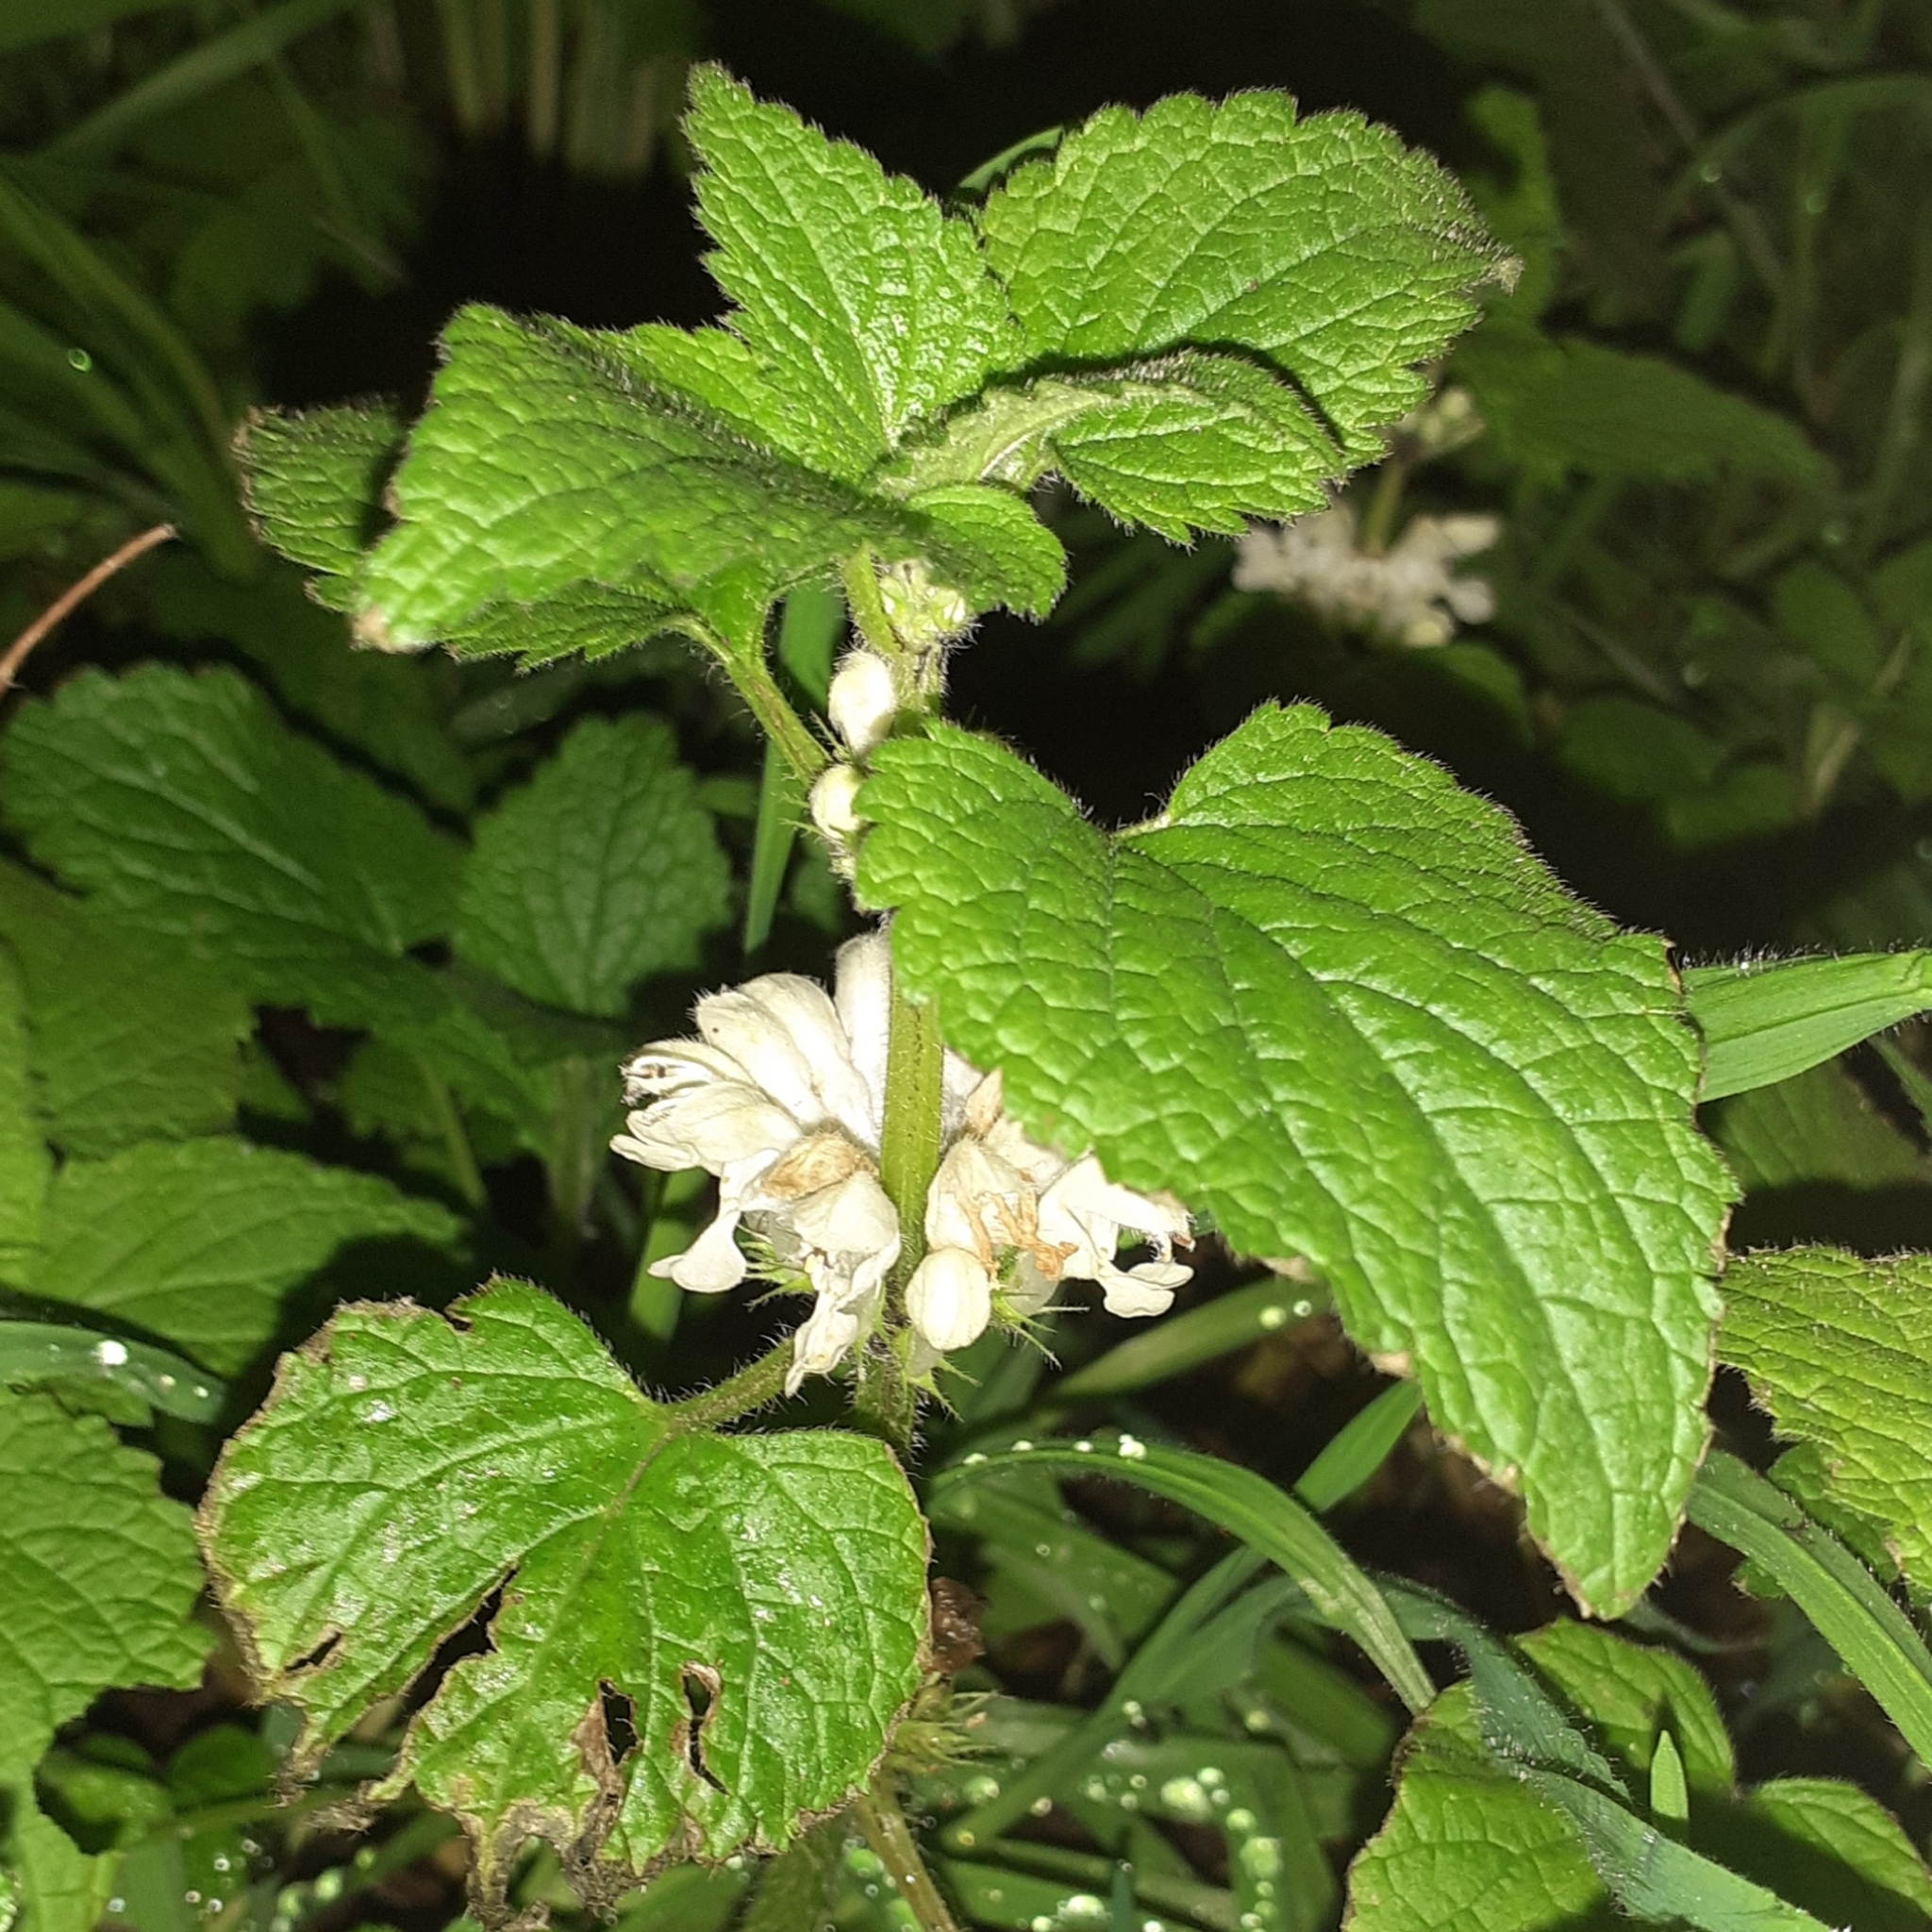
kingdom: Plantae
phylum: Tracheophyta
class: Magnoliopsida
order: Lamiales
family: Lamiaceae
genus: Lamium
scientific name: Lamium album
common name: White dead-nettle
